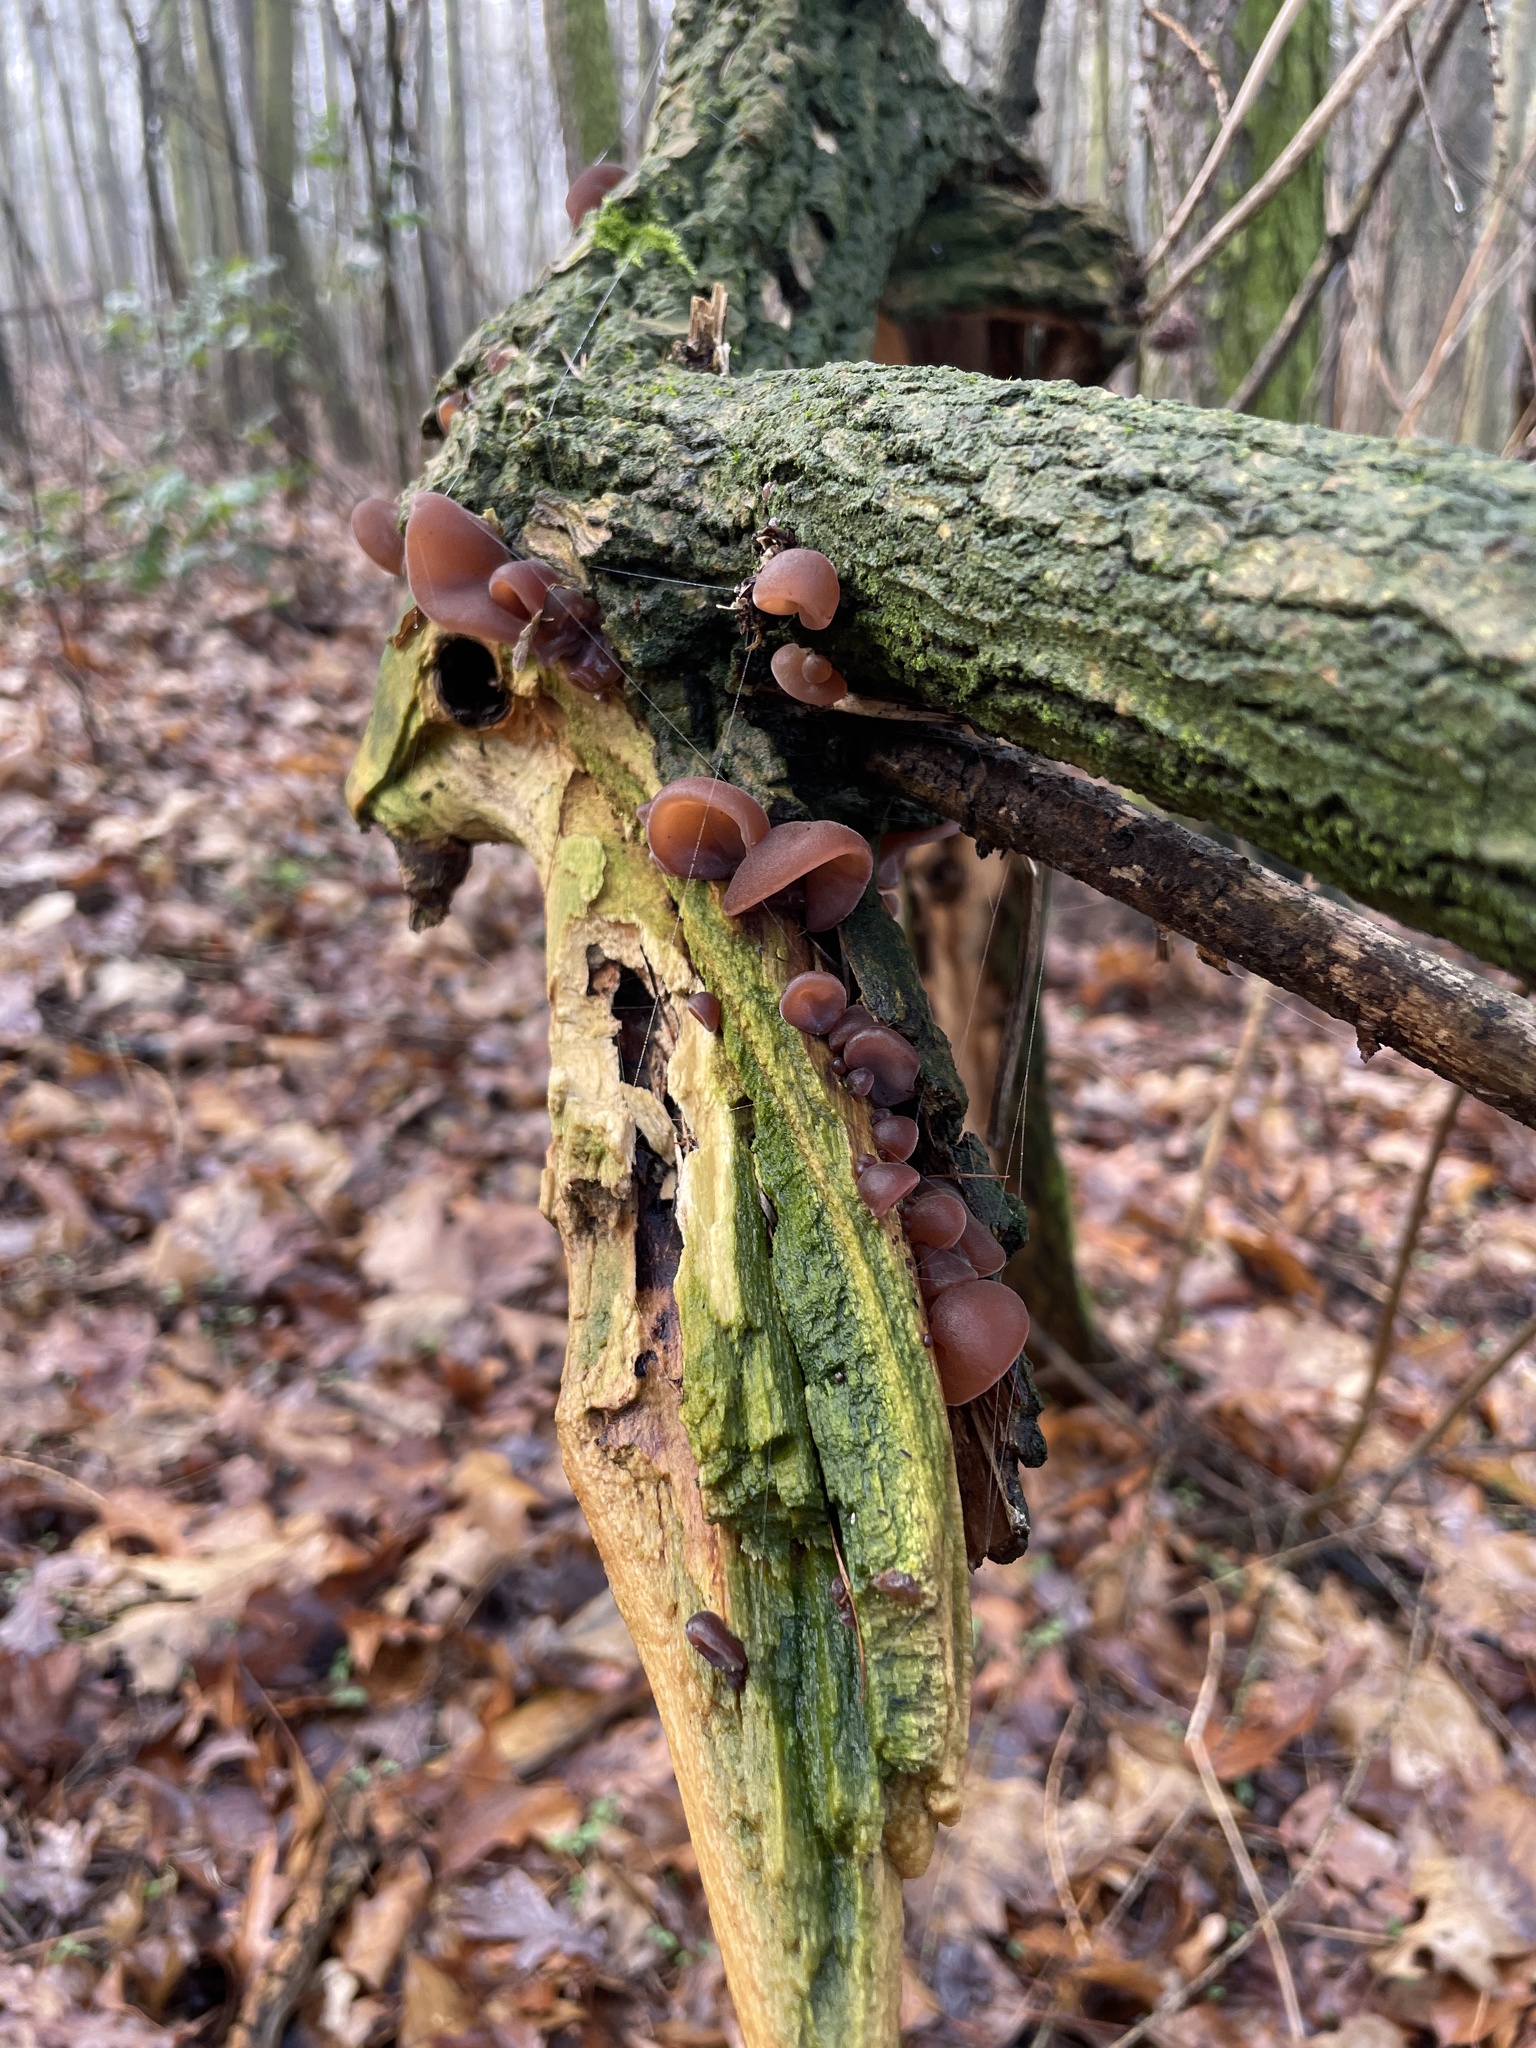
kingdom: Fungi
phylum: Basidiomycota
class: Agaricomycetes
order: Auriculariales
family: Auriculariaceae
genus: Auricularia
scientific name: Auricularia auricula-judae
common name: Jelly ear
